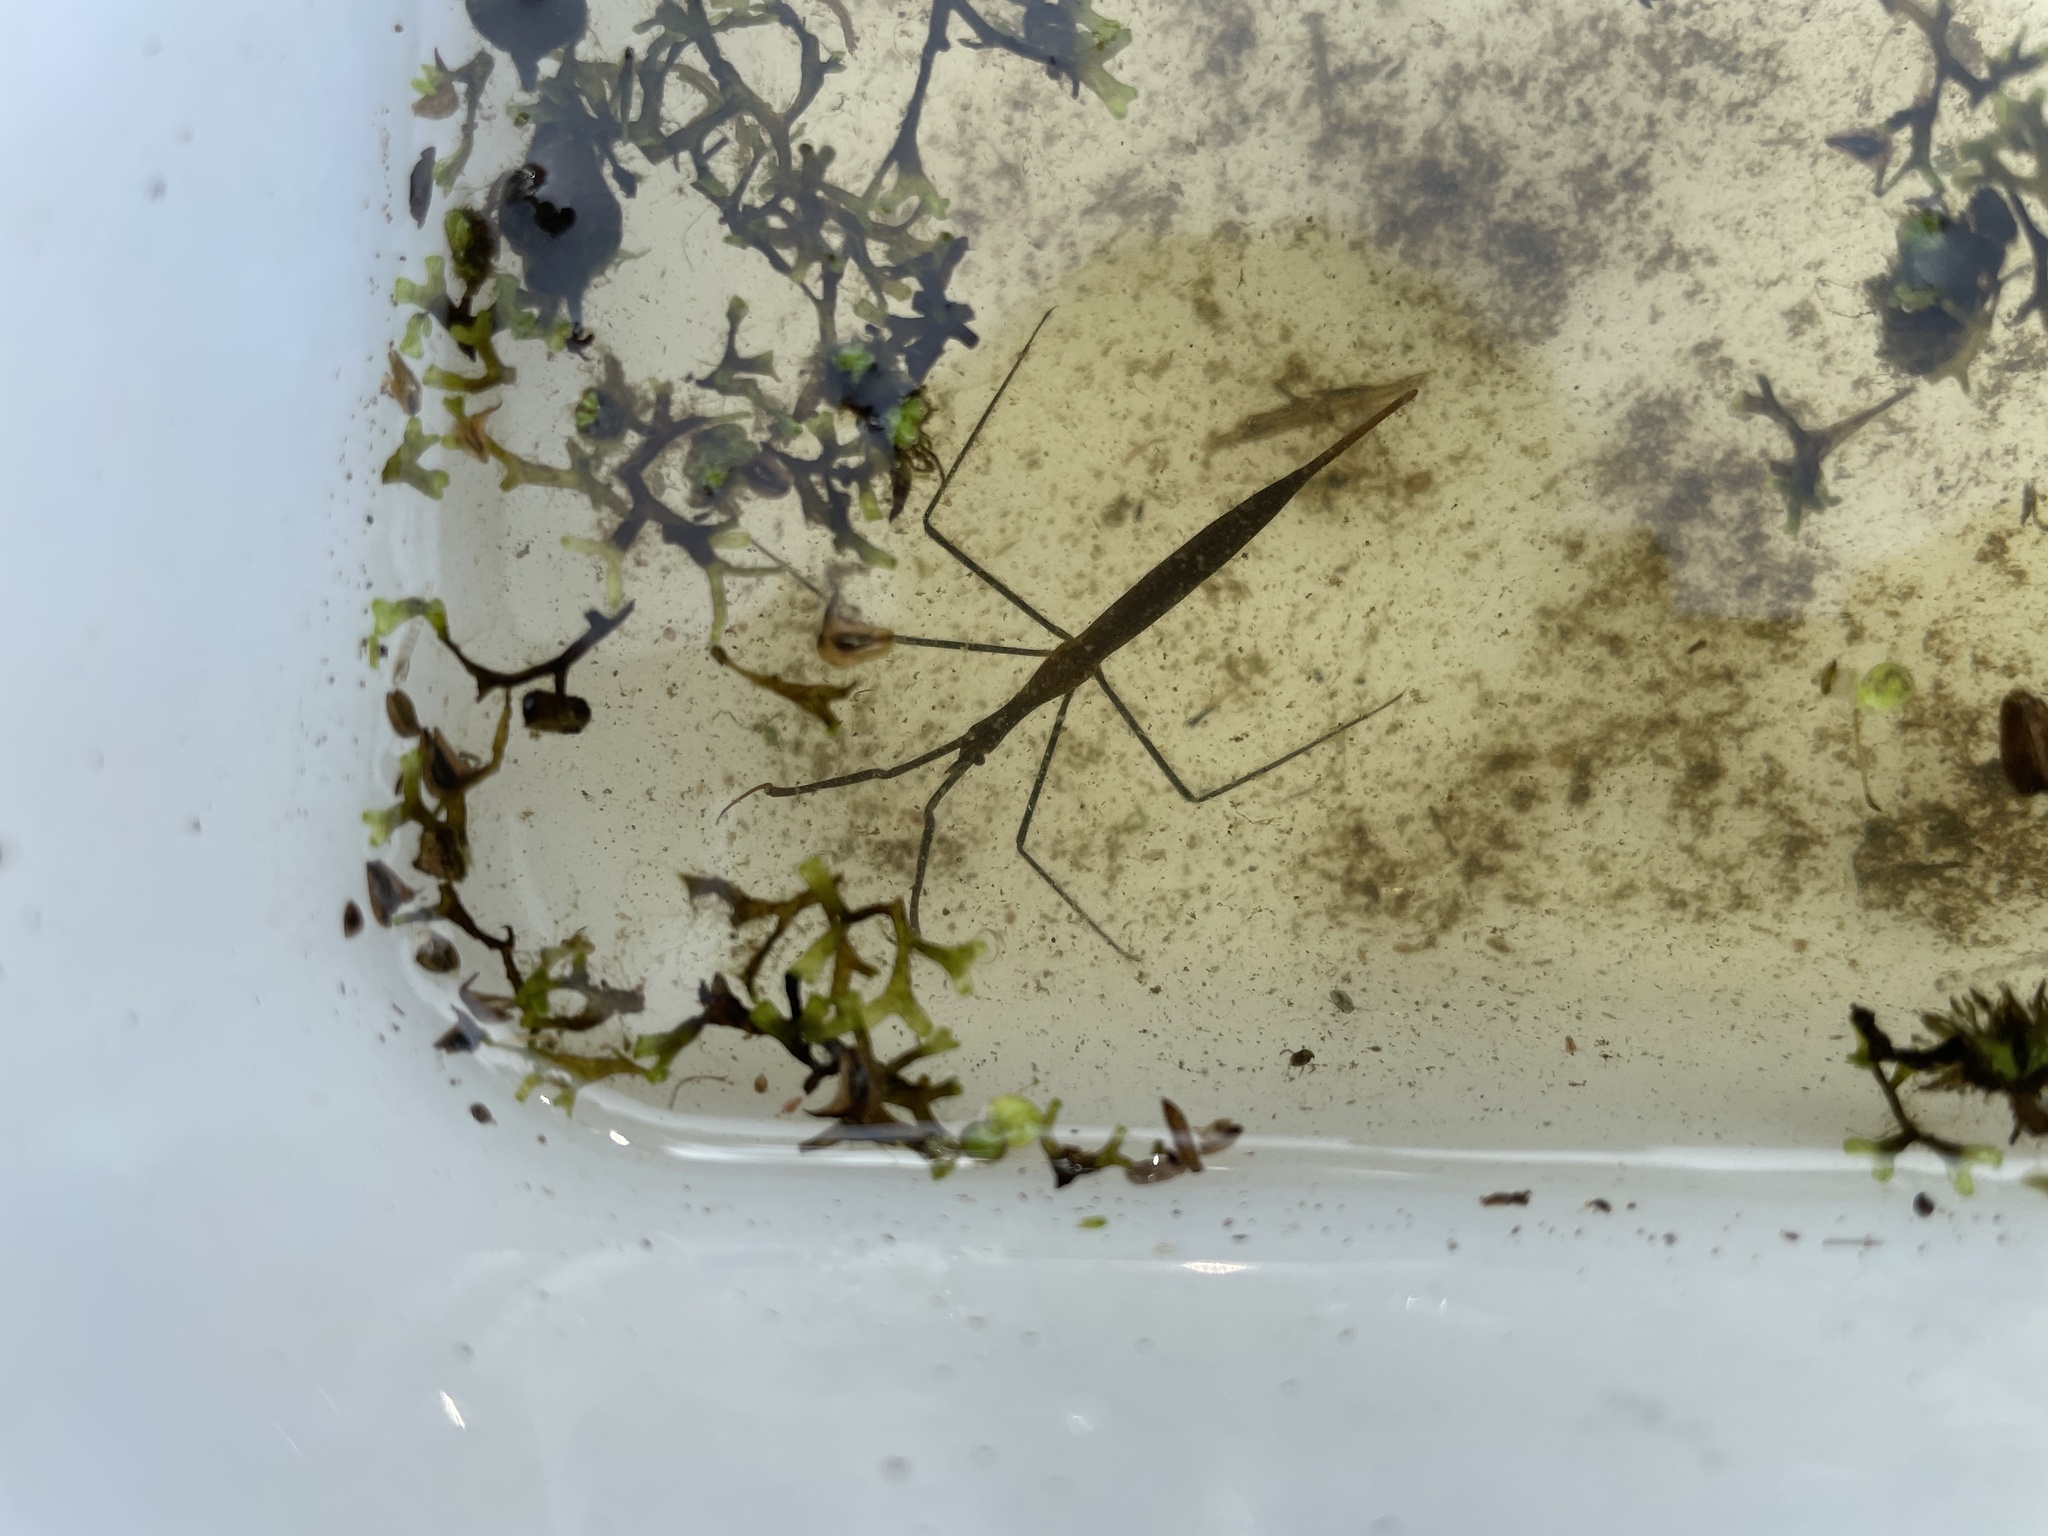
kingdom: Animalia
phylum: Arthropoda
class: Insecta
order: Hemiptera
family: Nepidae
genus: Ranatra
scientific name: Ranatra
